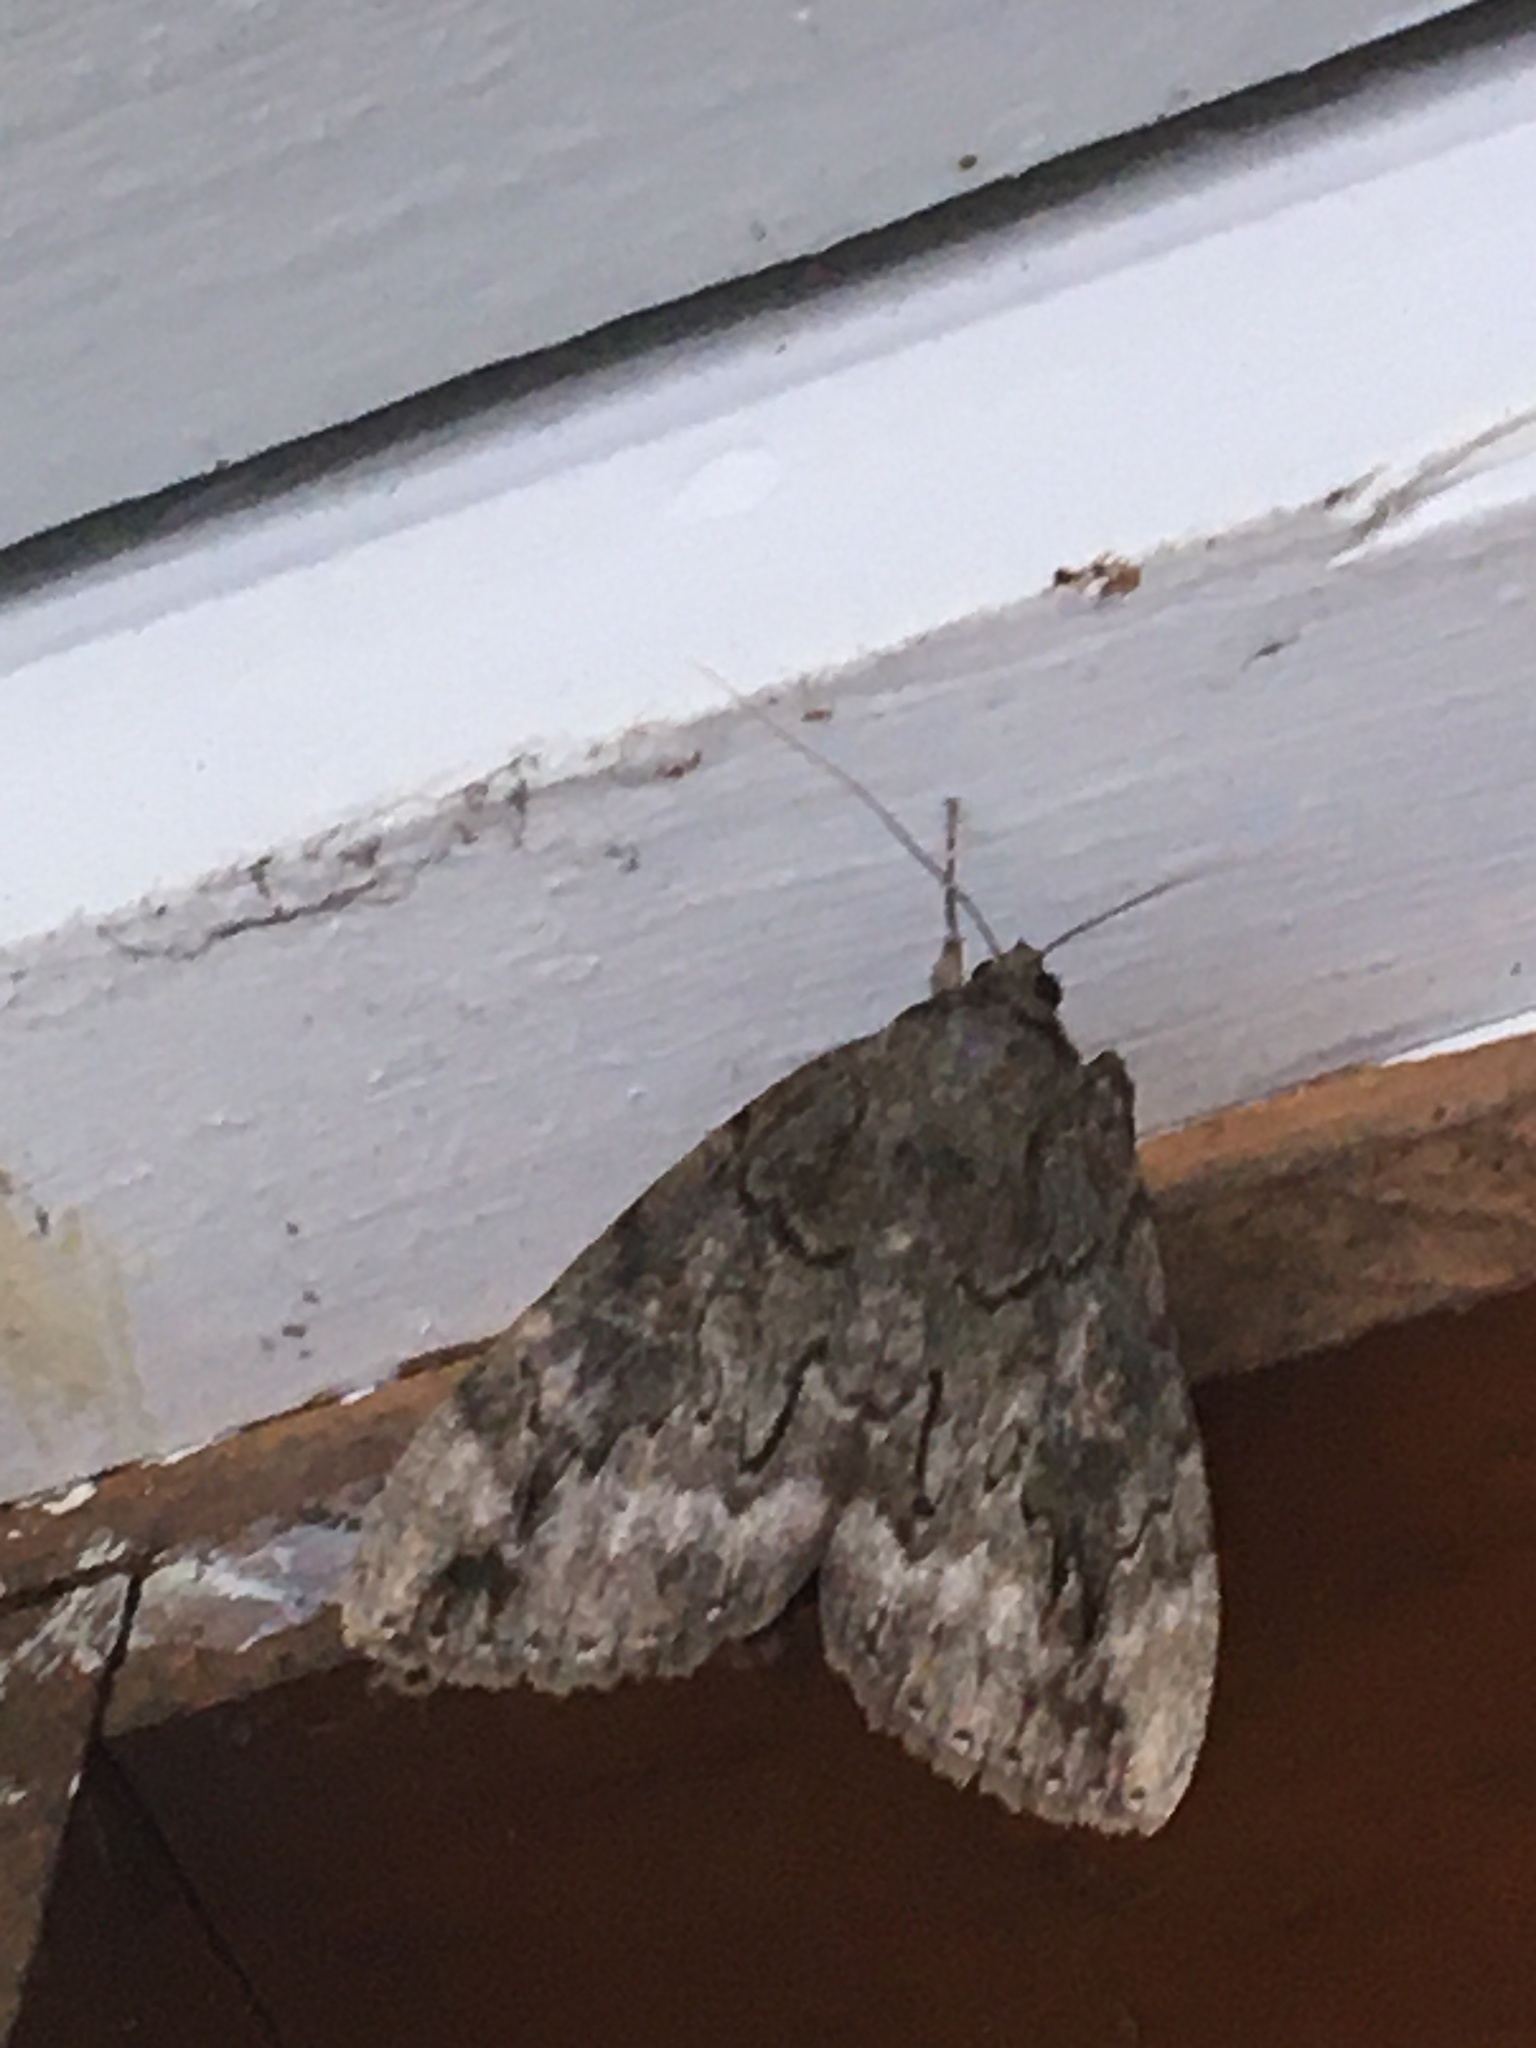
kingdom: Animalia
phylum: Arthropoda
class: Insecta
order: Lepidoptera
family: Erebidae
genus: Catocala
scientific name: Catocala residua
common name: Residua underwing
